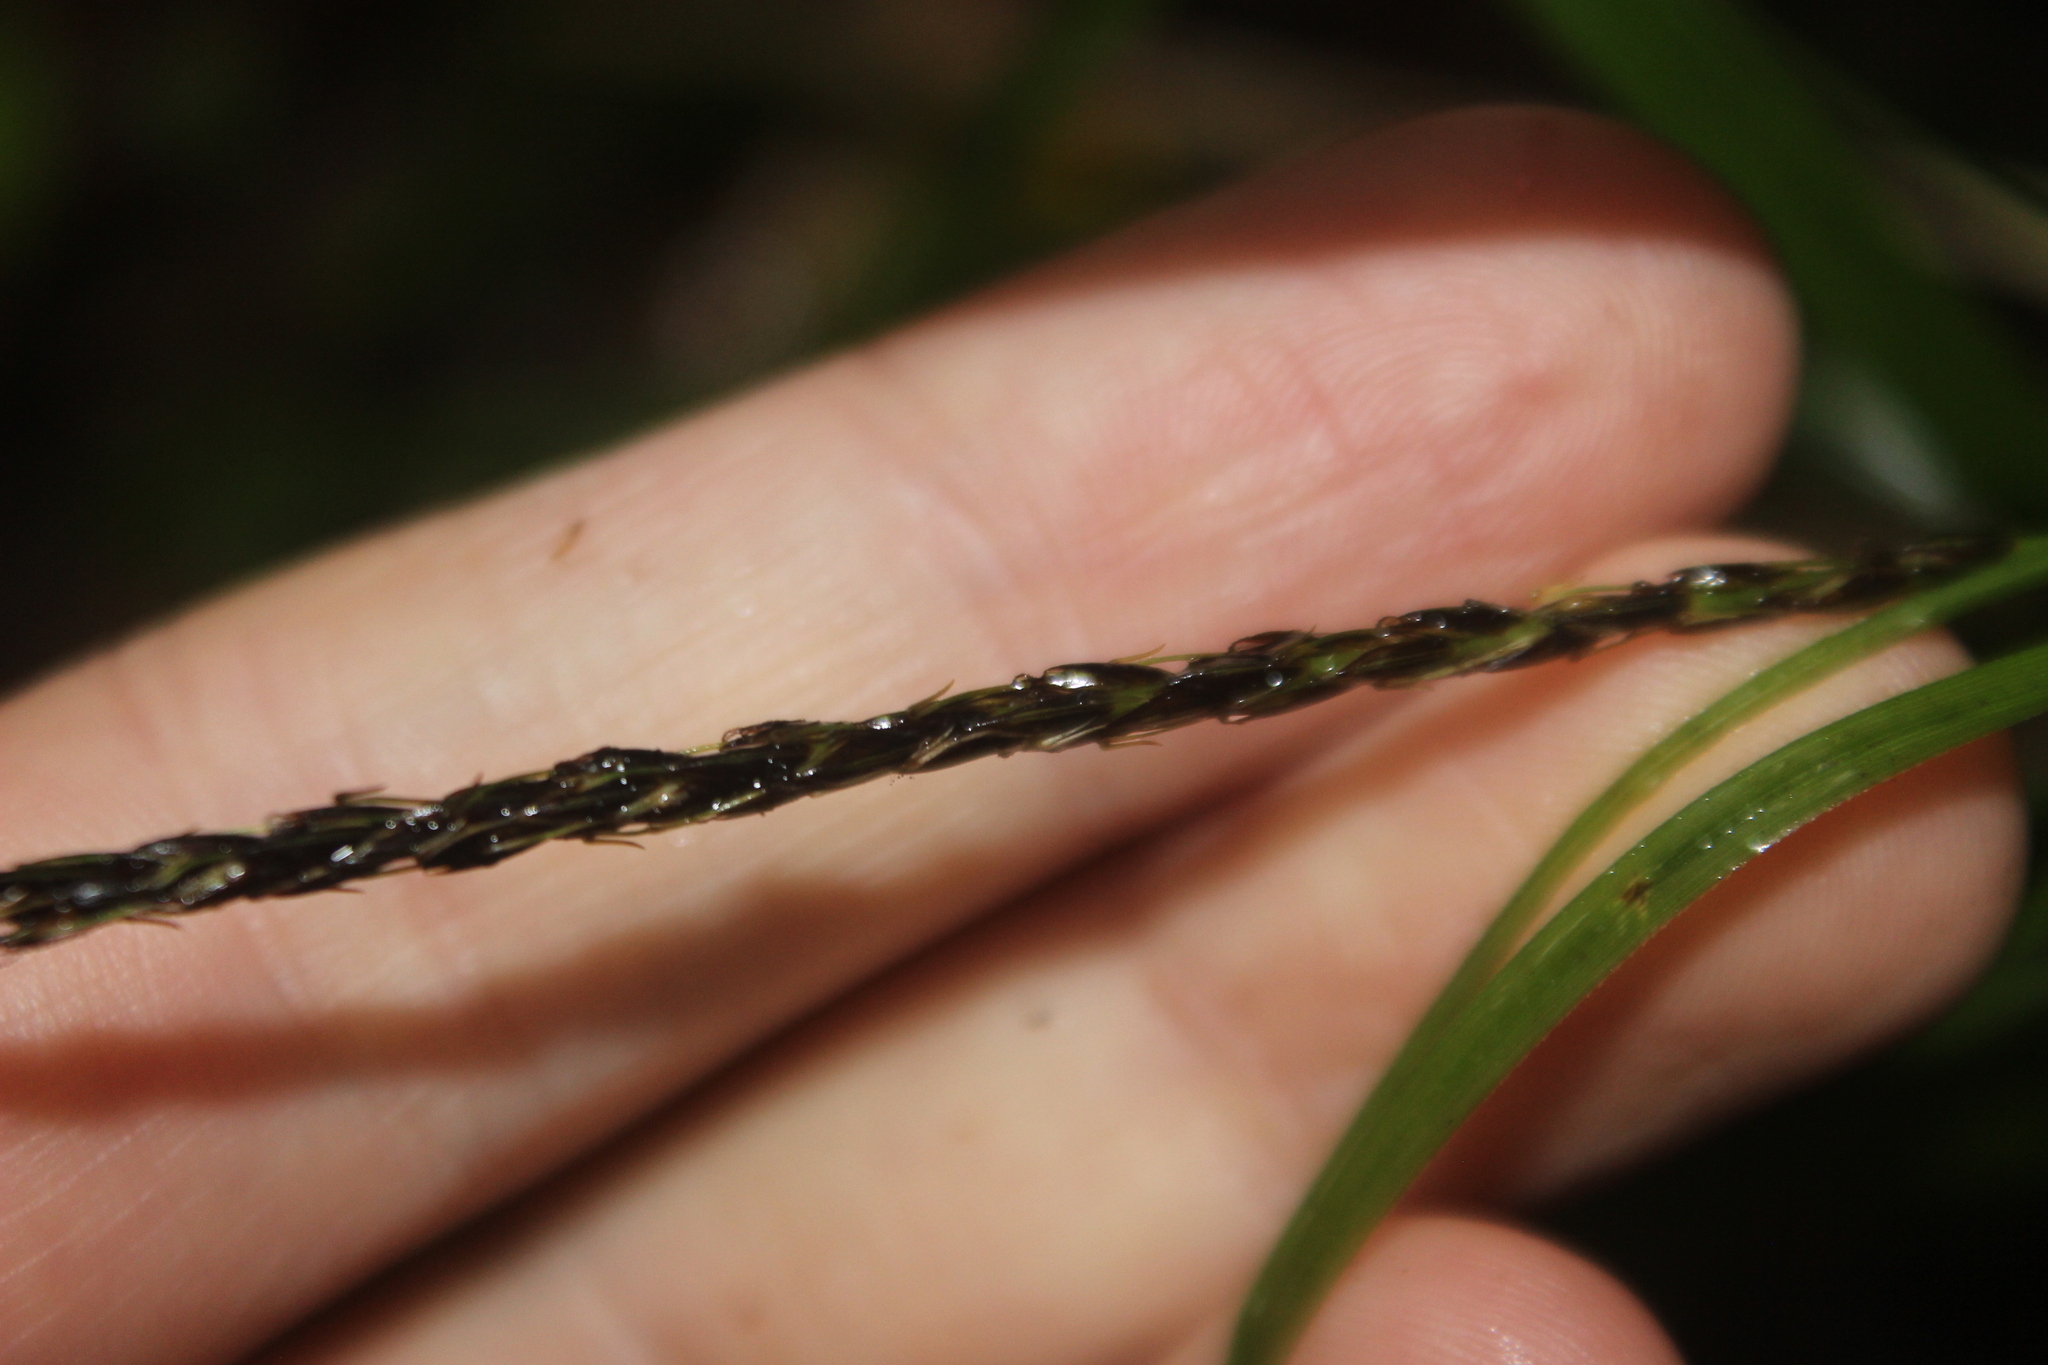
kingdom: Plantae
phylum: Tracheophyta
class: Liliopsida
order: Poales
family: Cyperaceae
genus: Carex
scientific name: Carex uncinata
